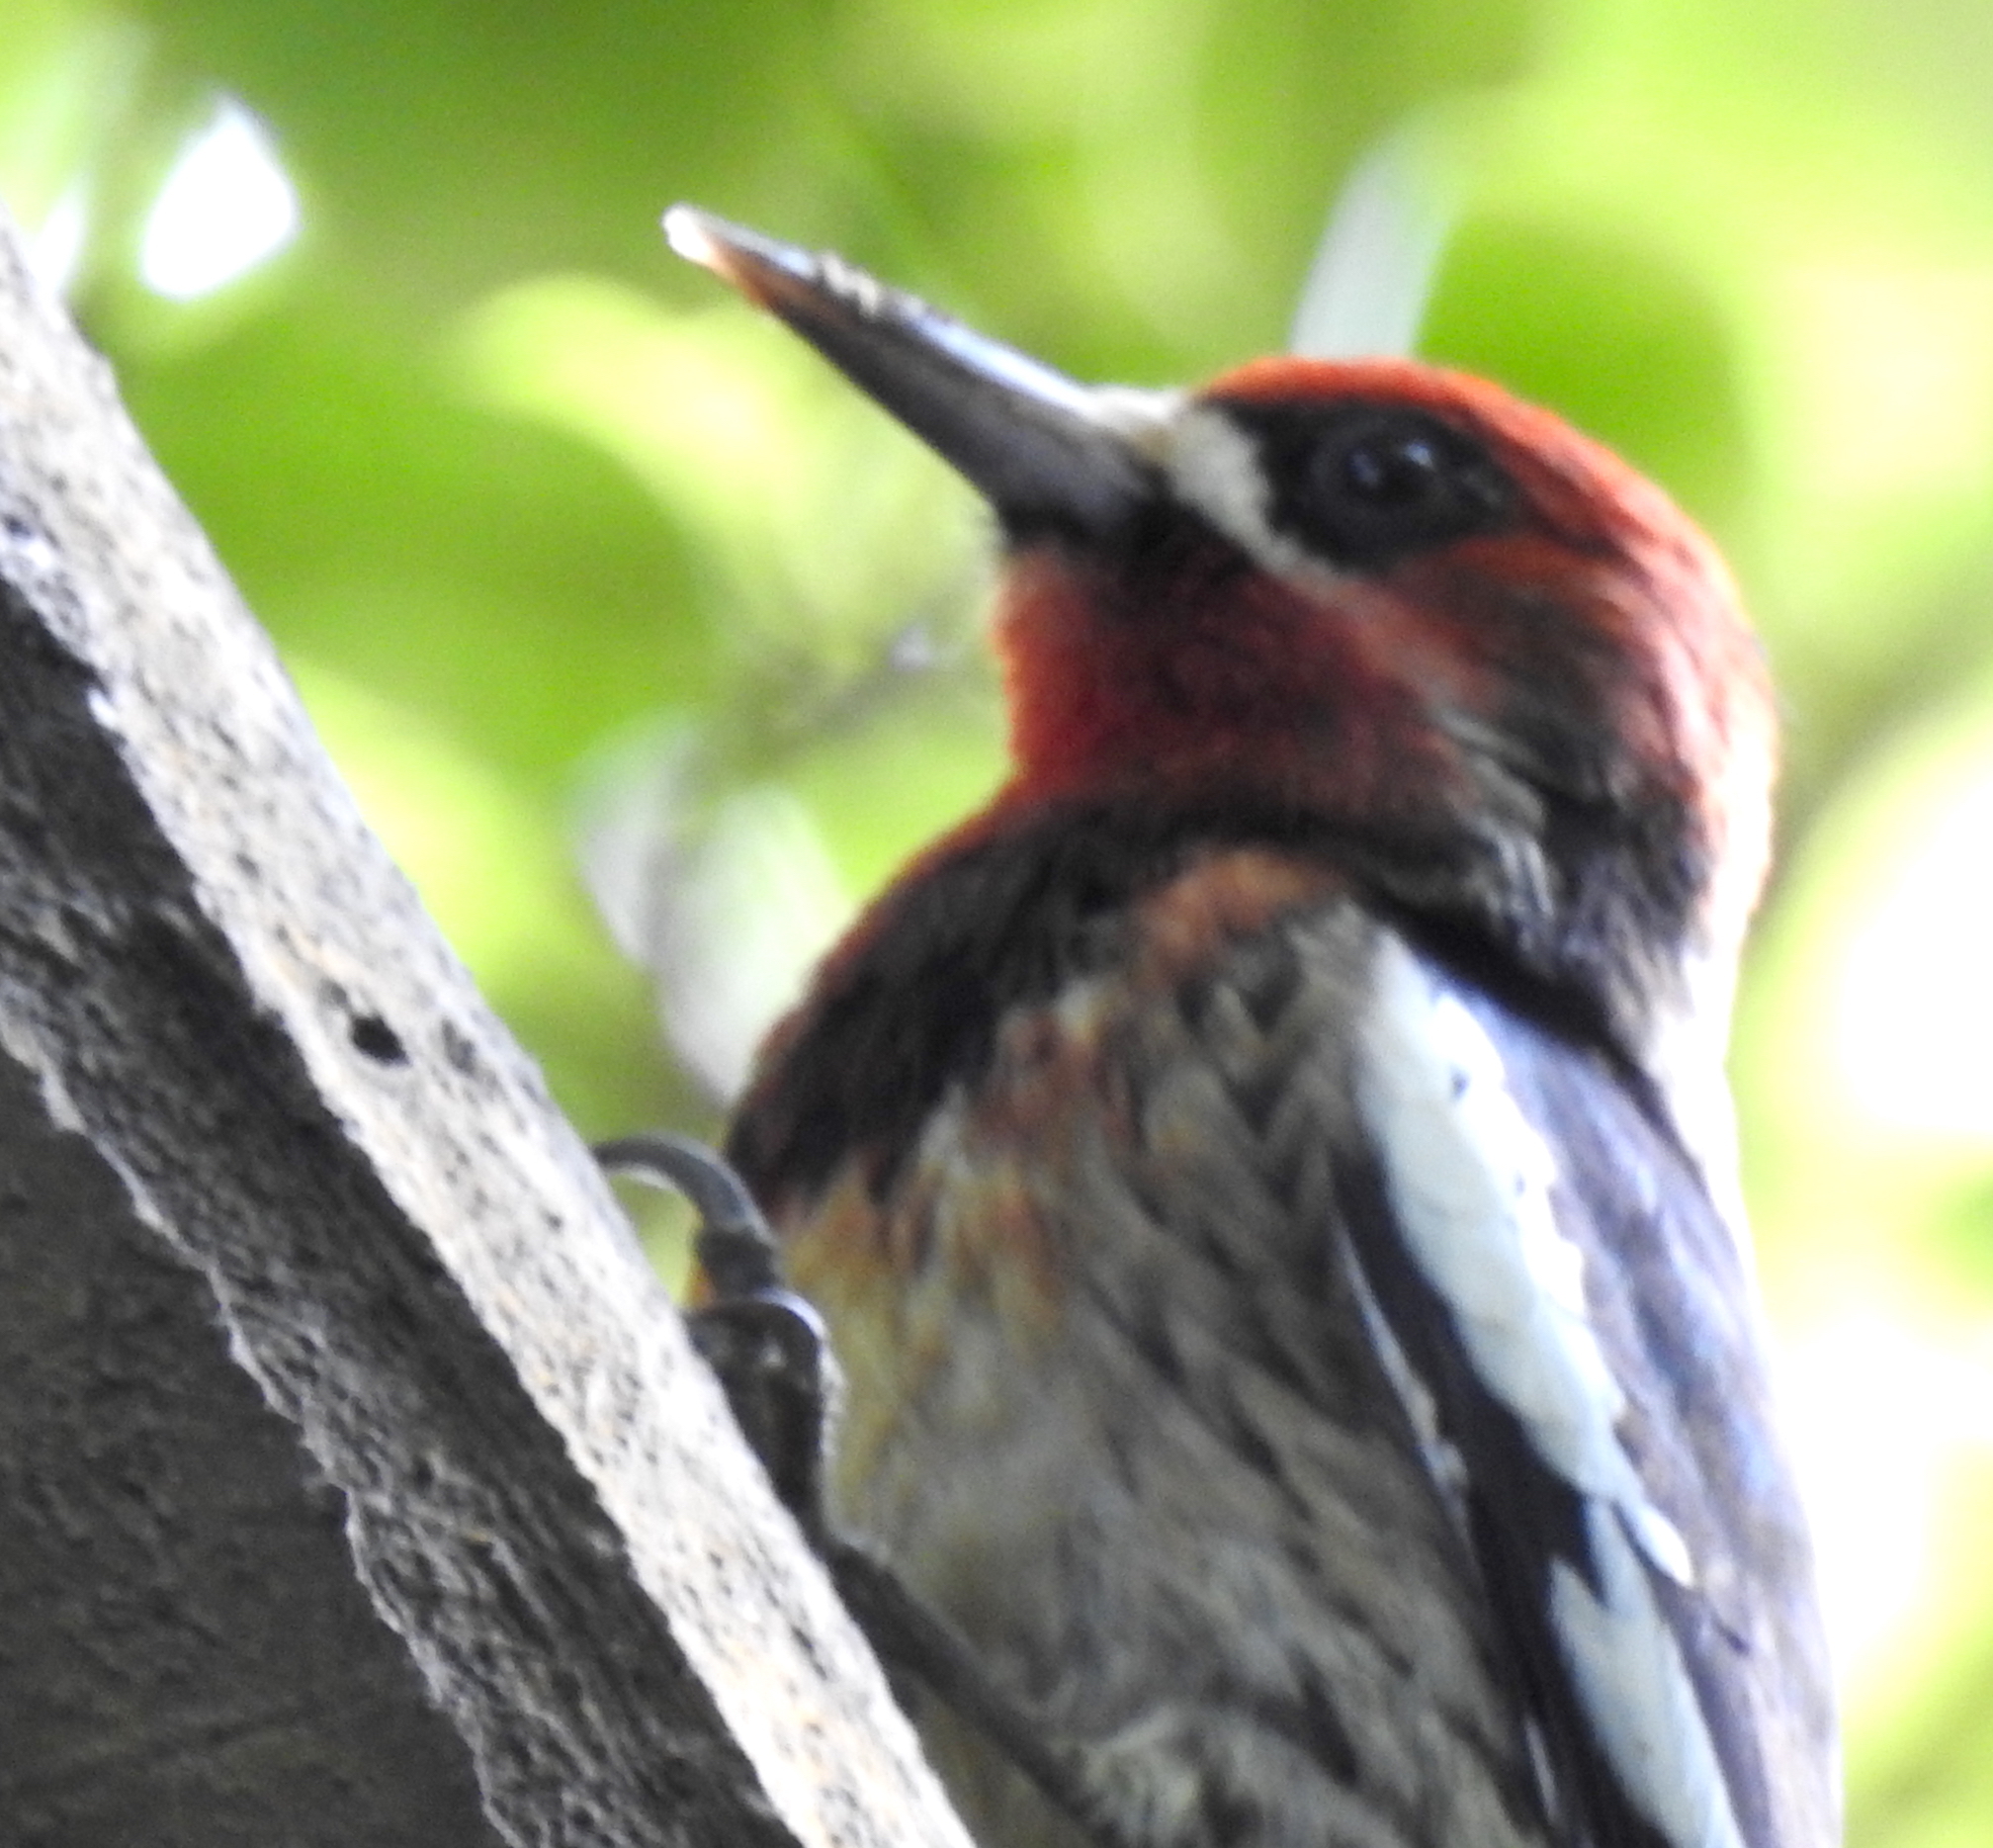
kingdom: Animalia
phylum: Chordata
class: Aves
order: Piciformes
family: Picidae
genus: Sphyrapicus
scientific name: Sphyrapicus
